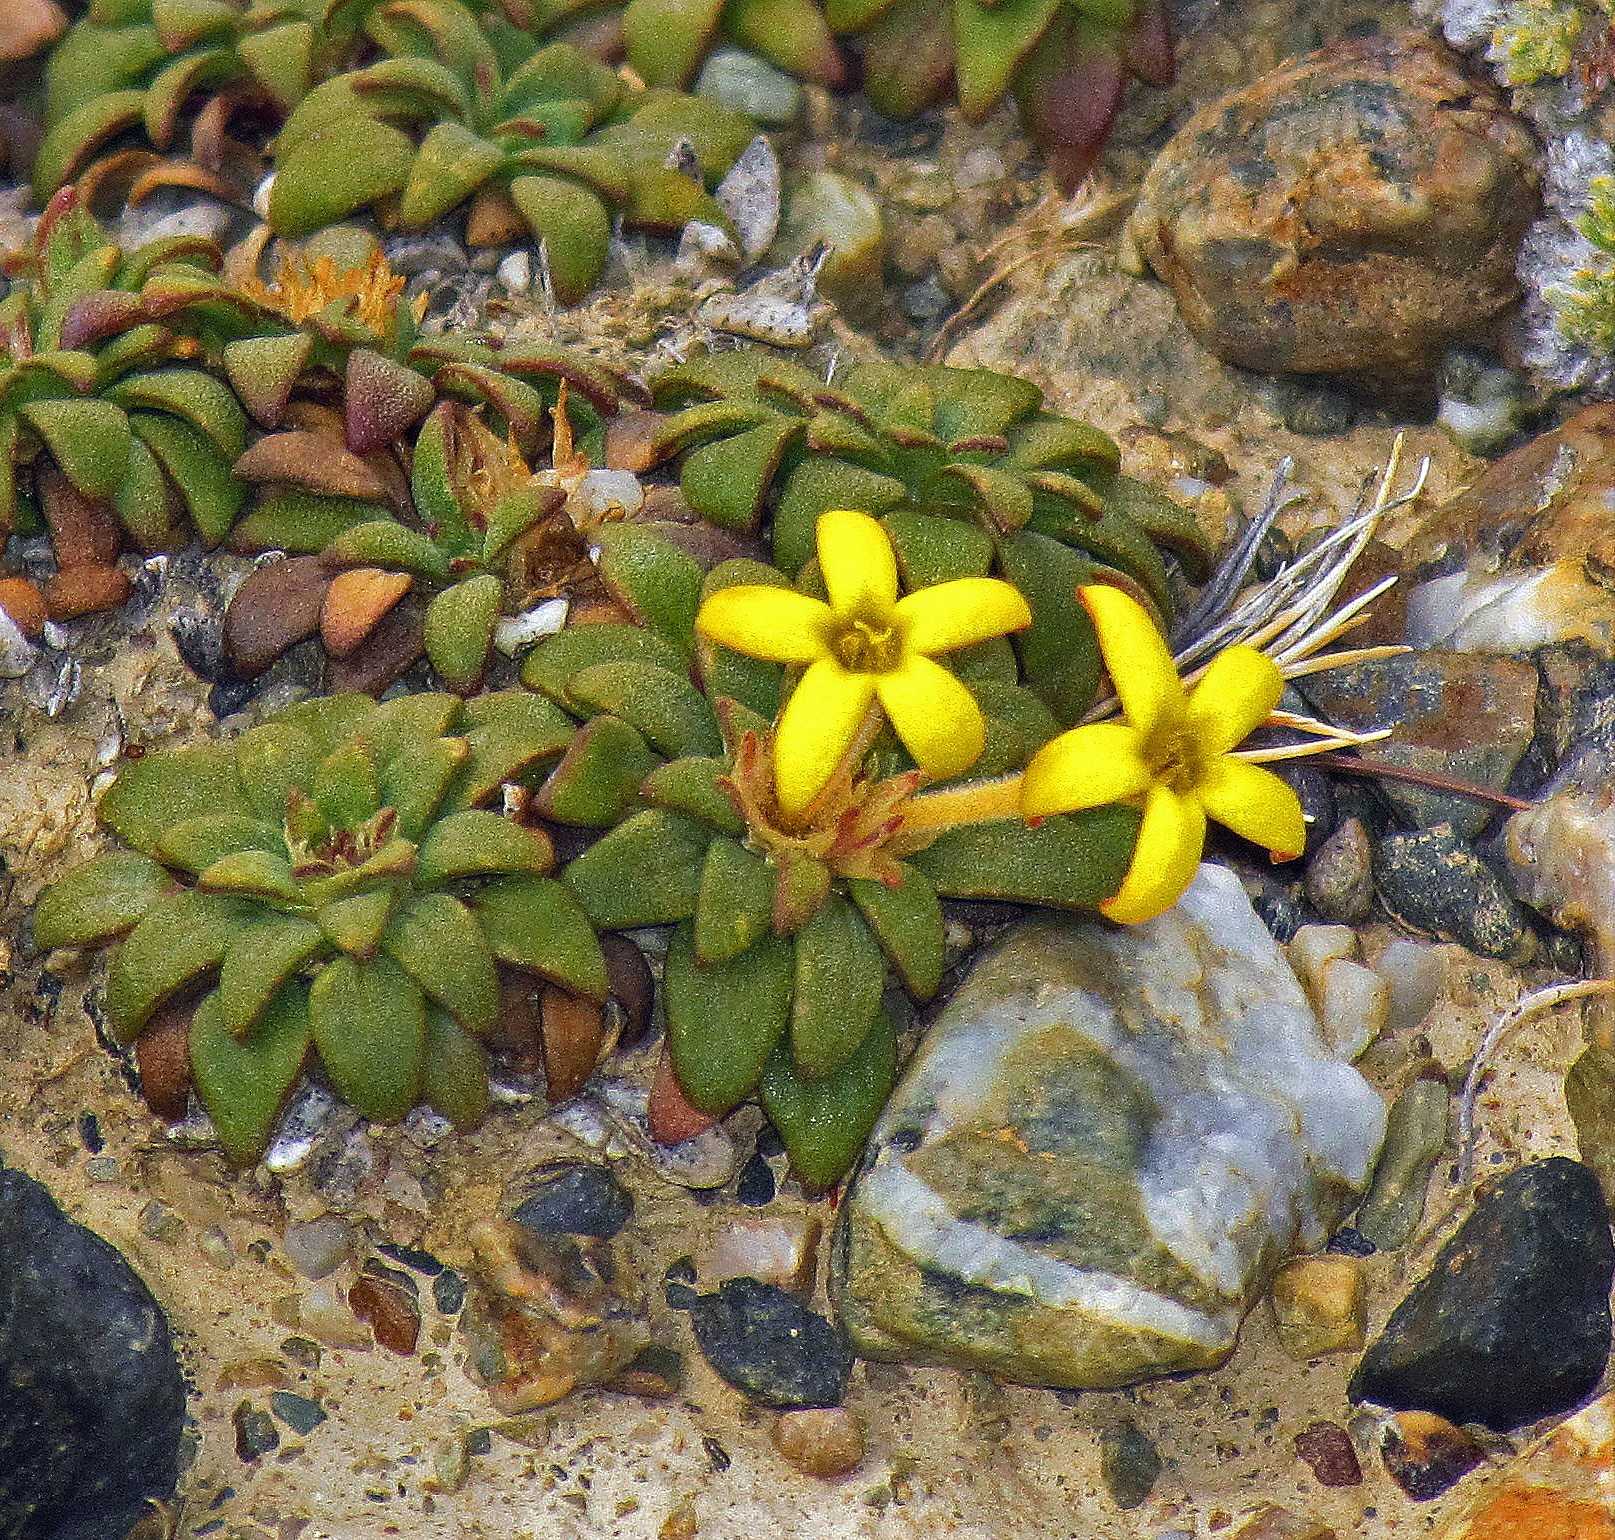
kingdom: Plantae
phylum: Tracheophyta
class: Magnoliopsida
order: Gentianales
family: Rubiaceae
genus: Oreopolus
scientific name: Oreopolus glacialis
